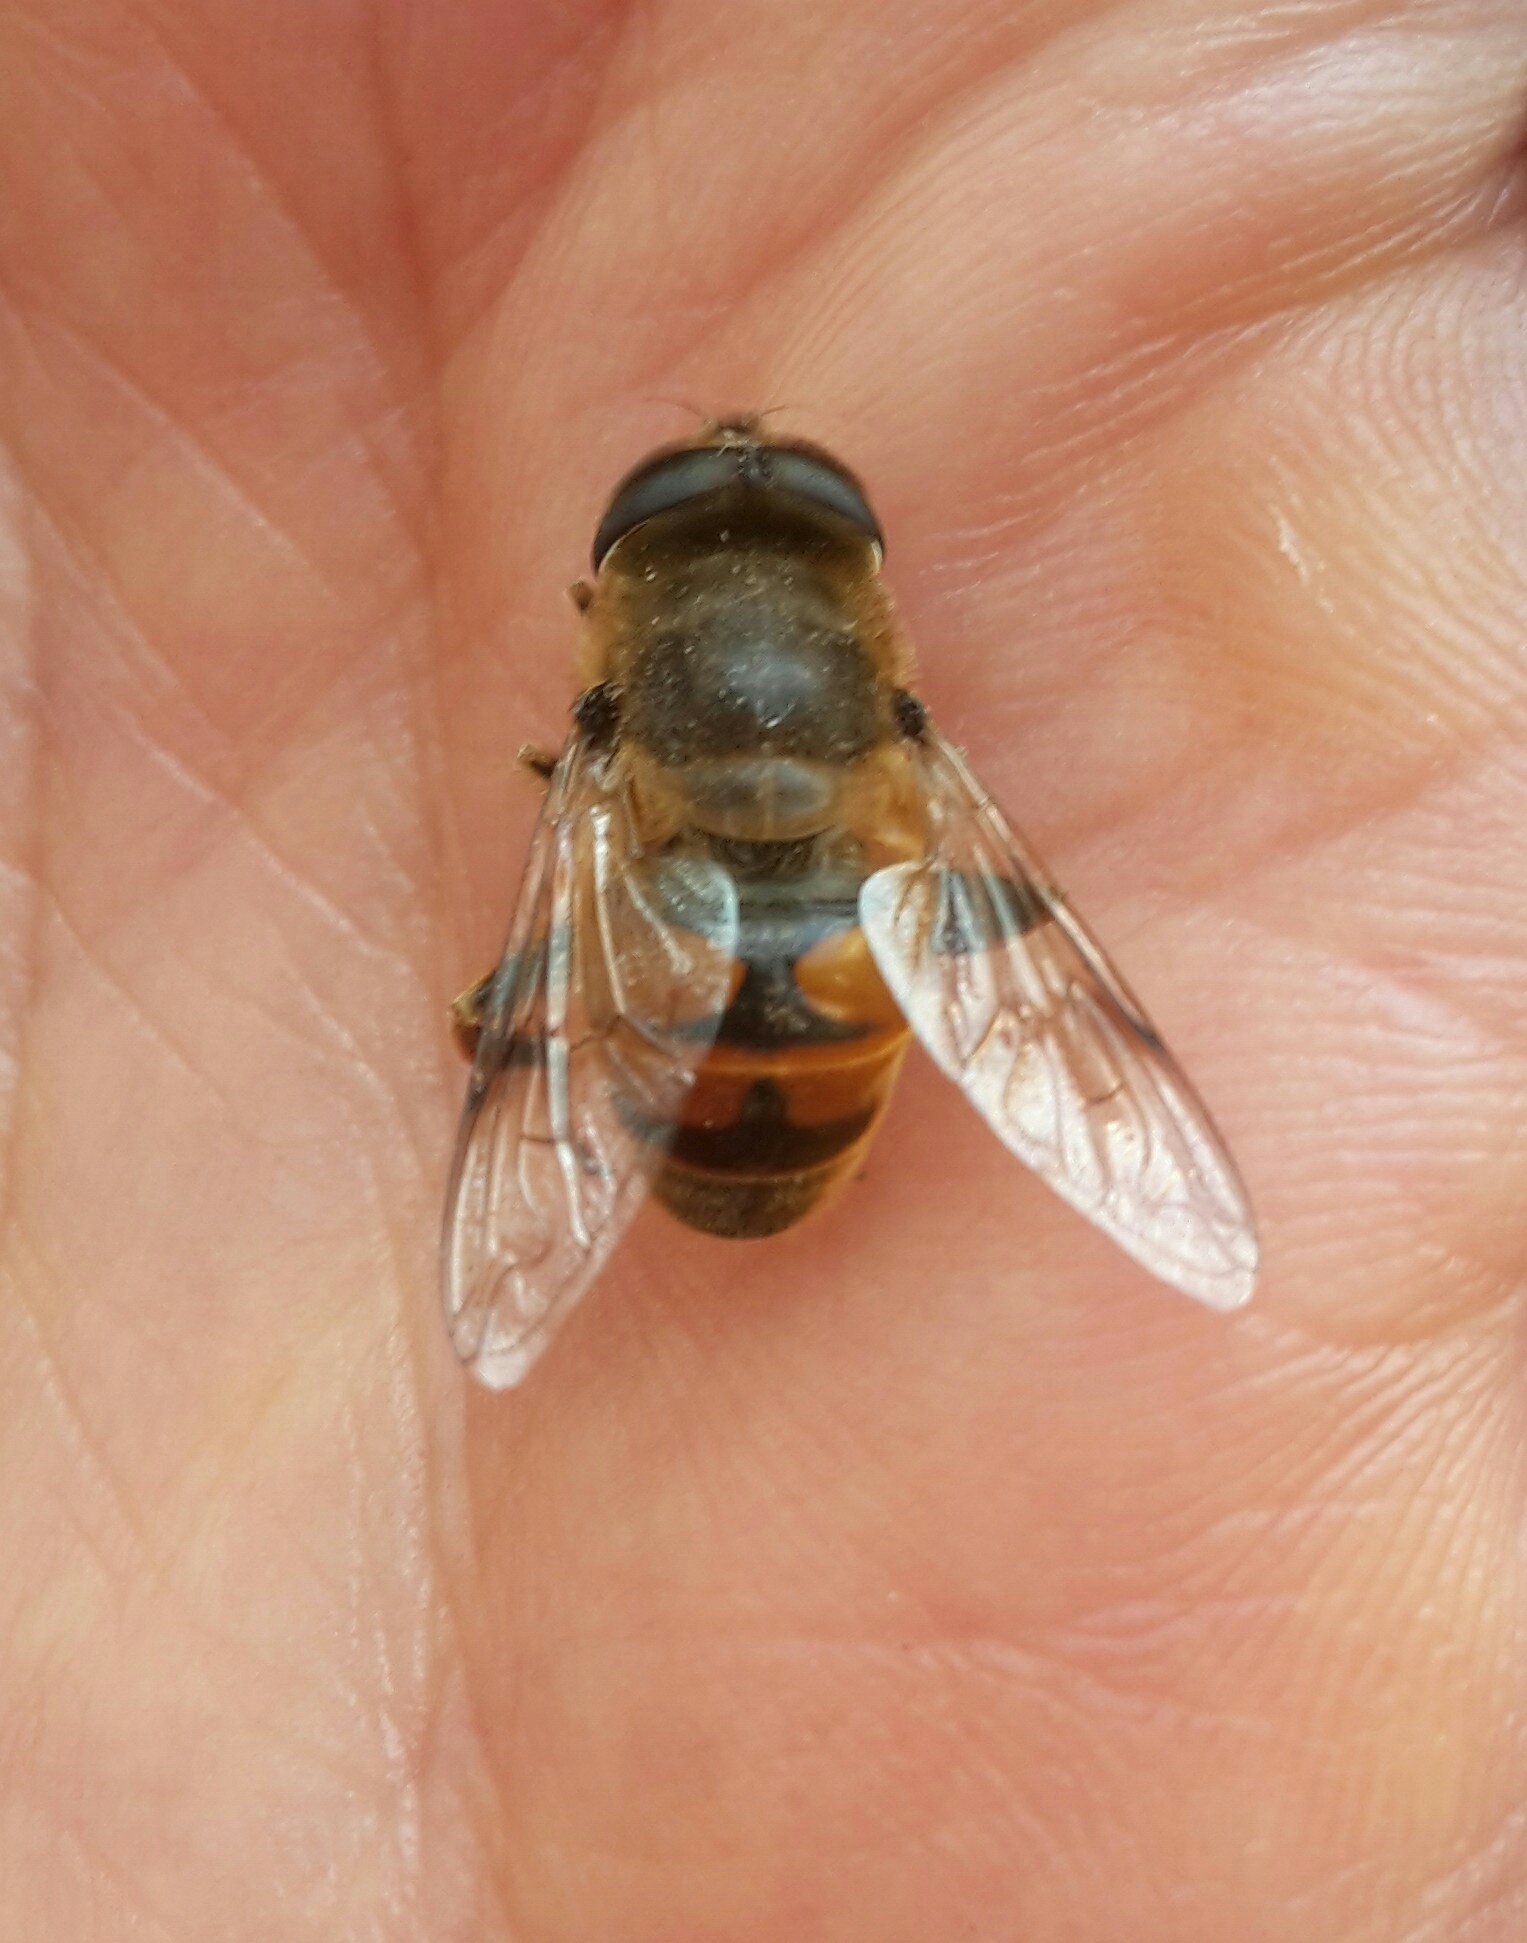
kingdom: Animalia
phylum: Arthropoda
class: Insecta
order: Diptera
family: Syrphidae
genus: Eristalis
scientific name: Eristalis tenax
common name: Drone fly
